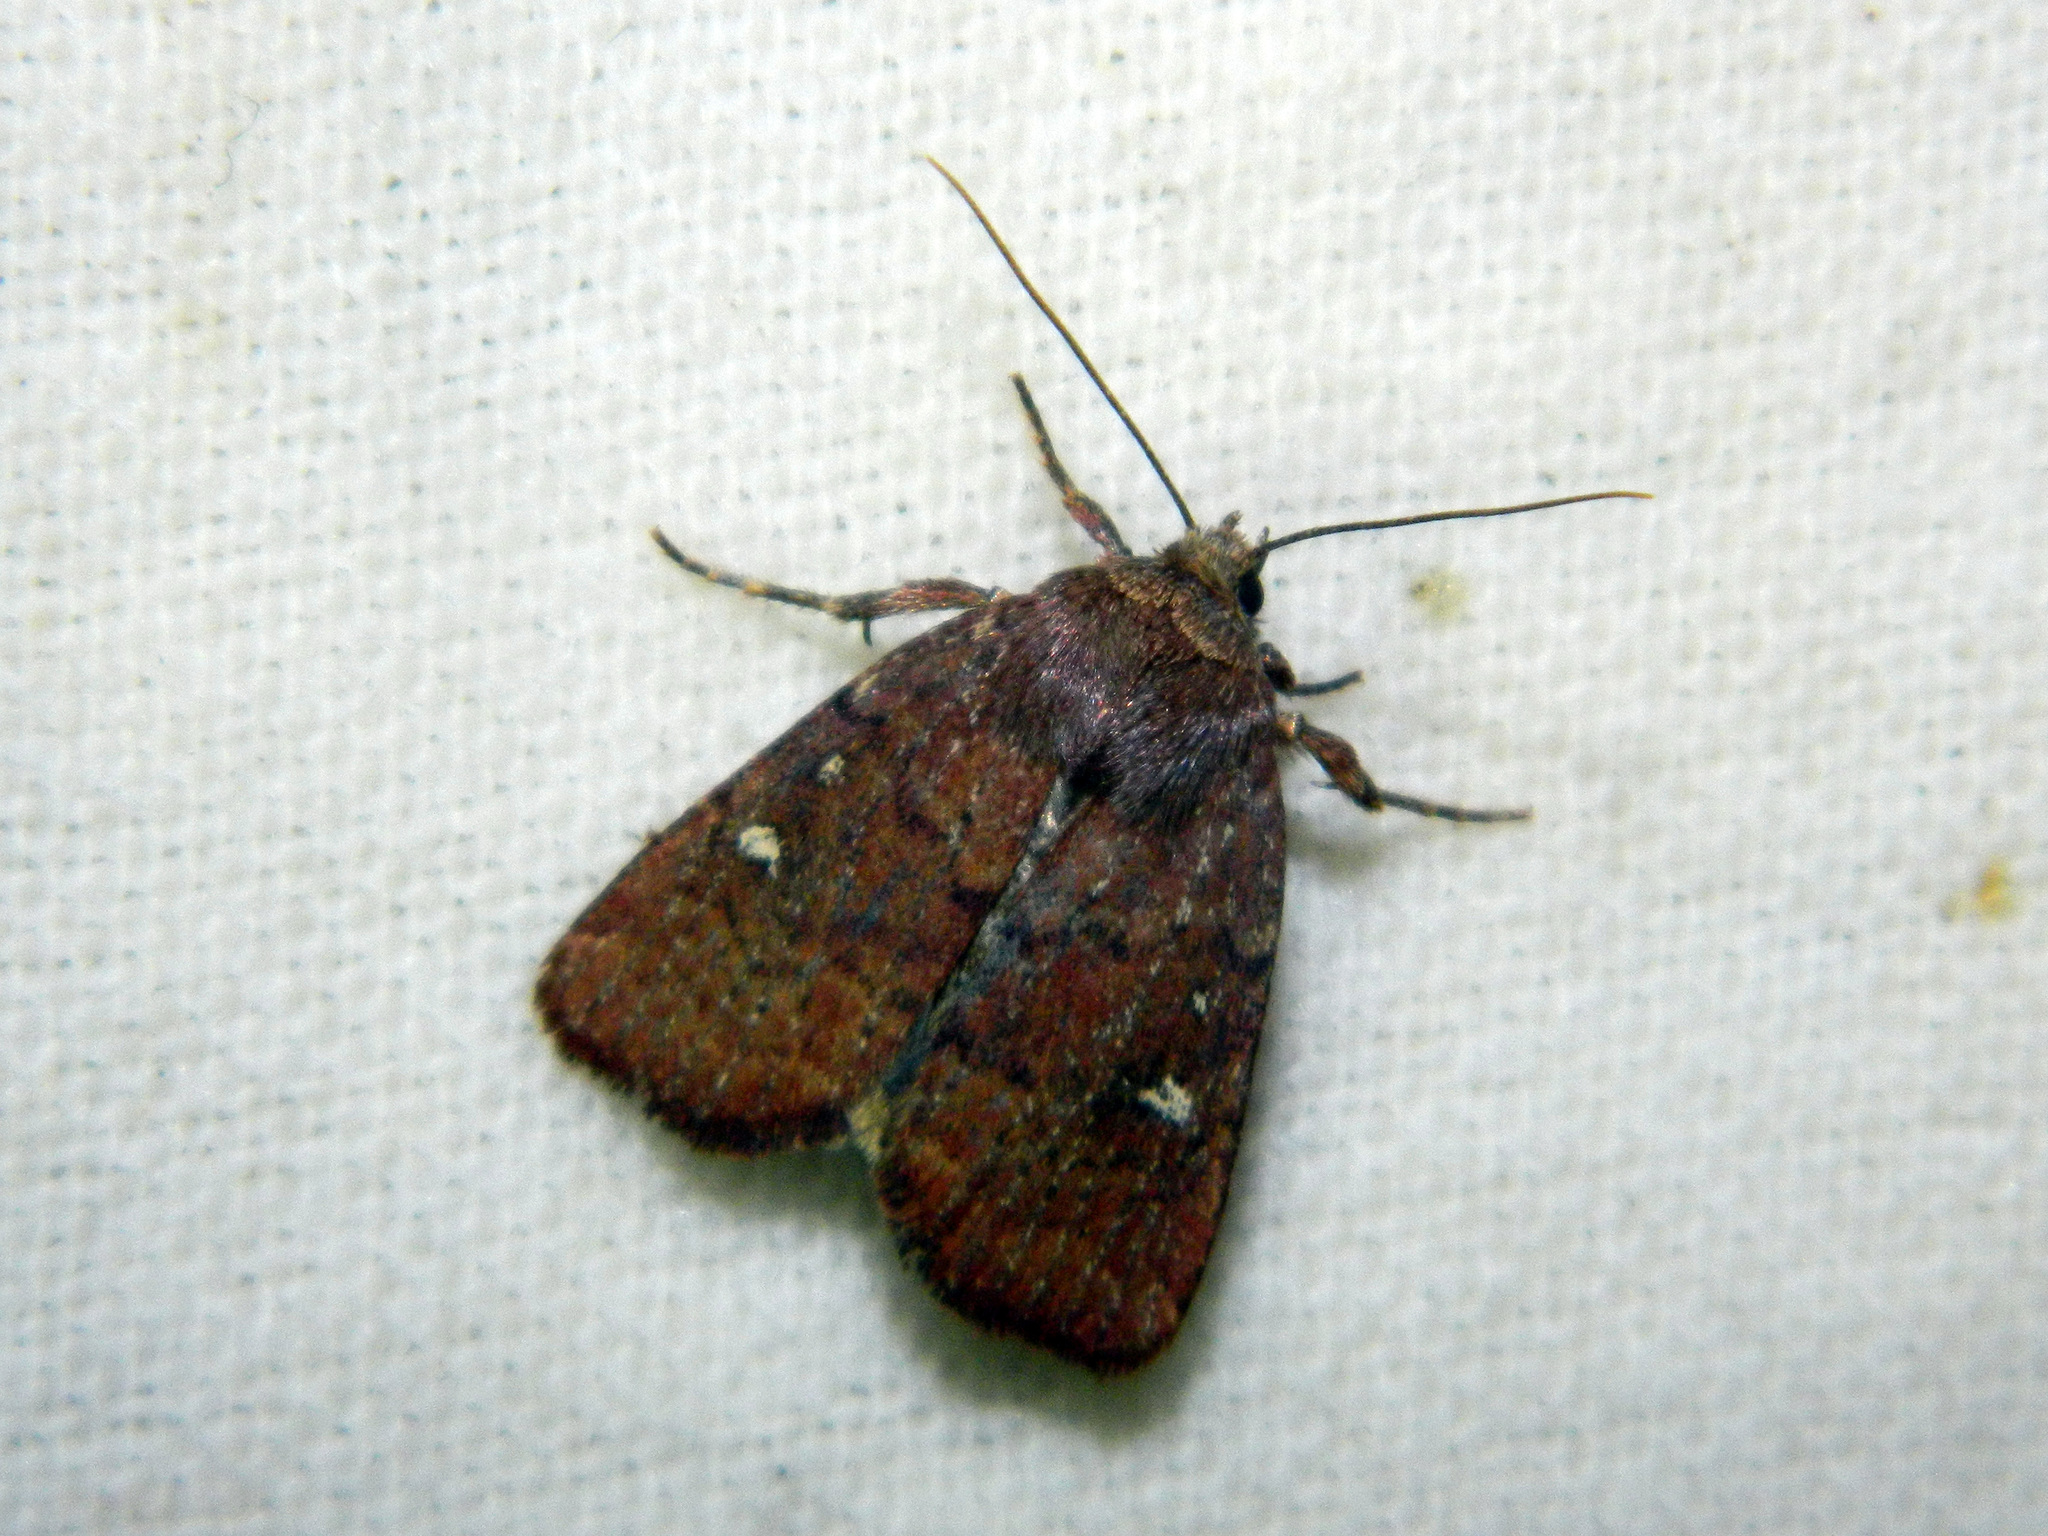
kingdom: Animalia
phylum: Arthropoda
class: Insecta
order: Lepidoptera
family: Noctuidae
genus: Pseudorthodes
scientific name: Pseudorthodes vecors
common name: Small brown quaker
